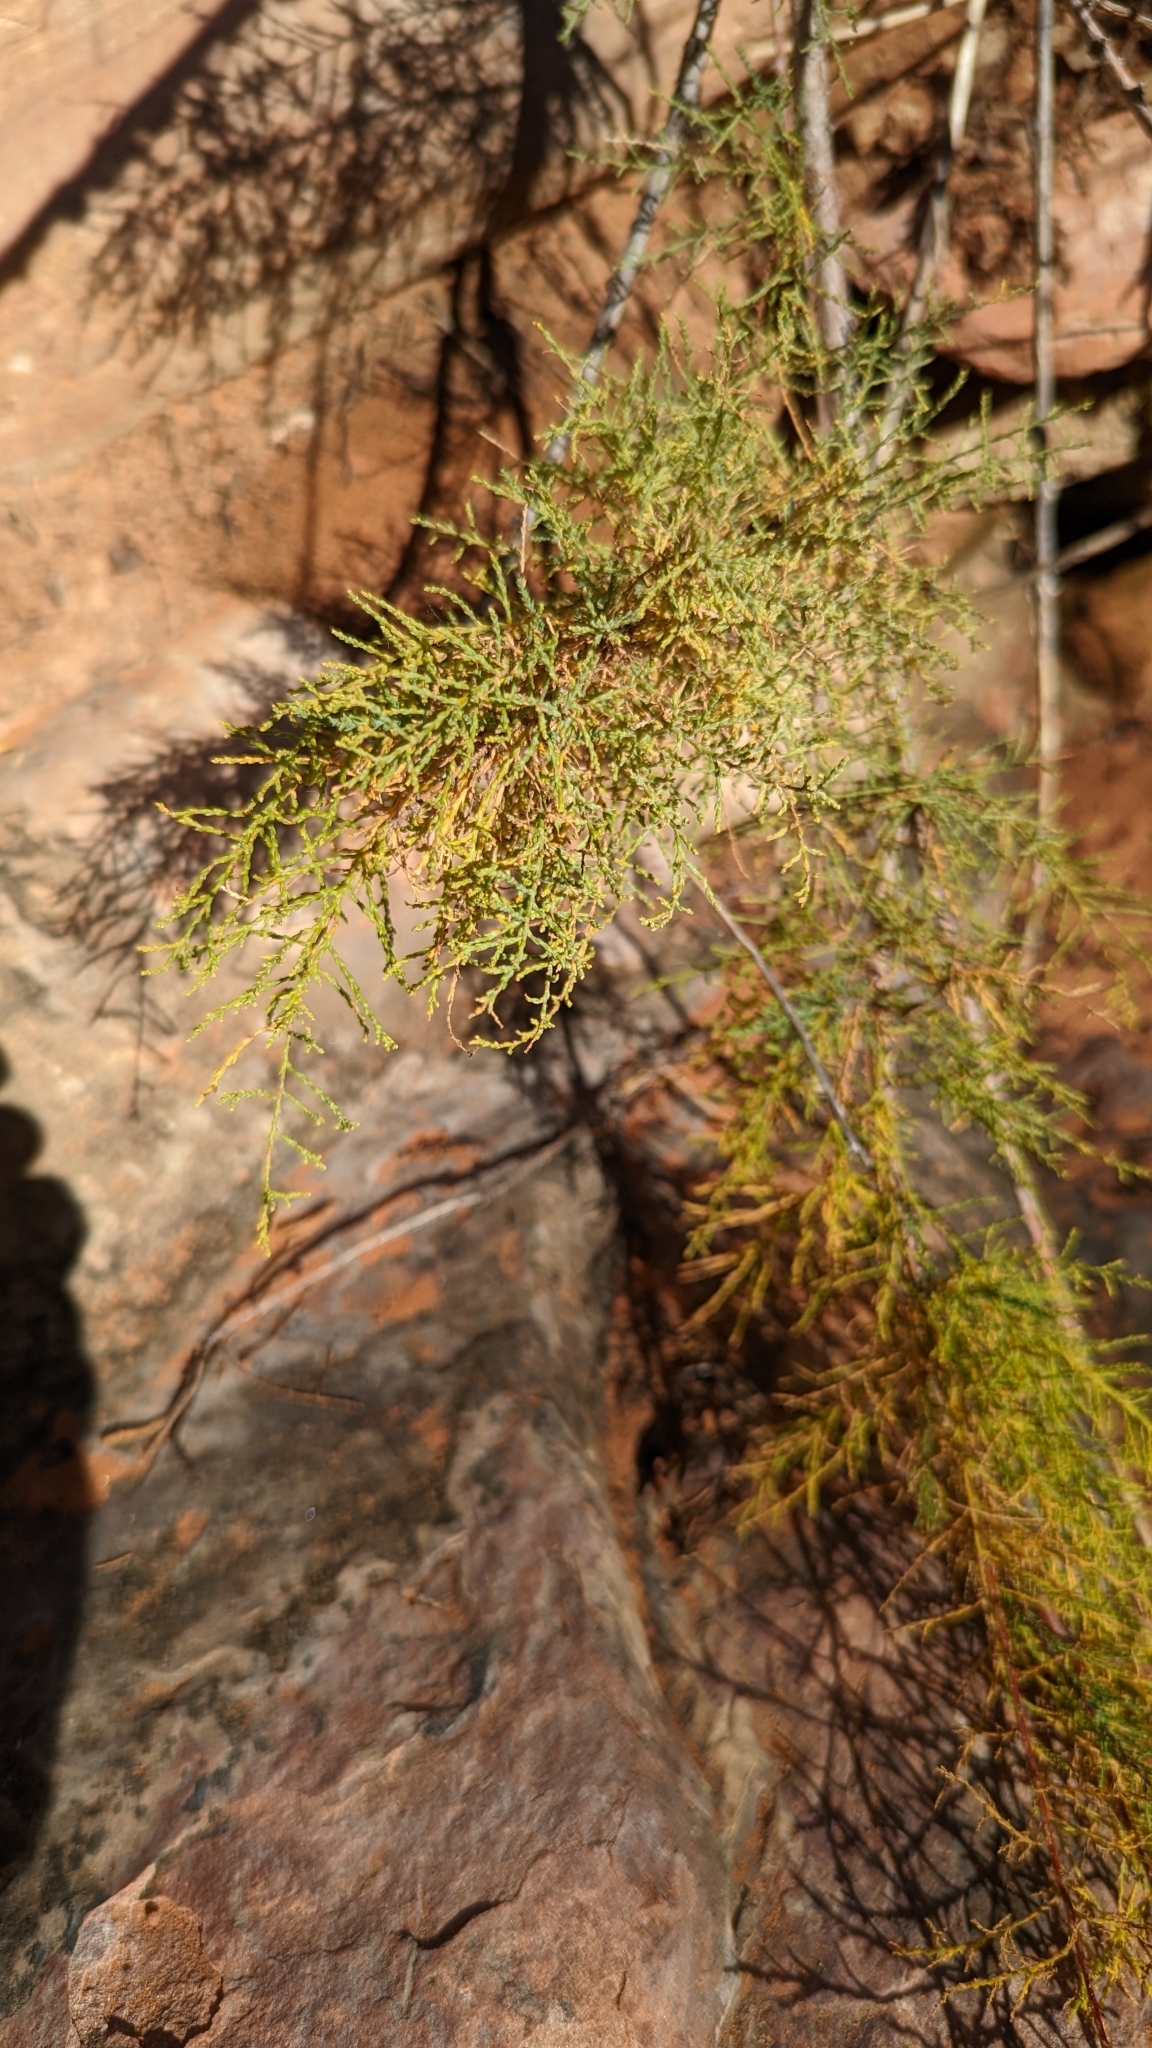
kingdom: Plantae
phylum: Tracheophyta
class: Magnoliopsida
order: Caryophyllales
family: Tamaricaceae
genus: Tamarix
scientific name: Tamarix
